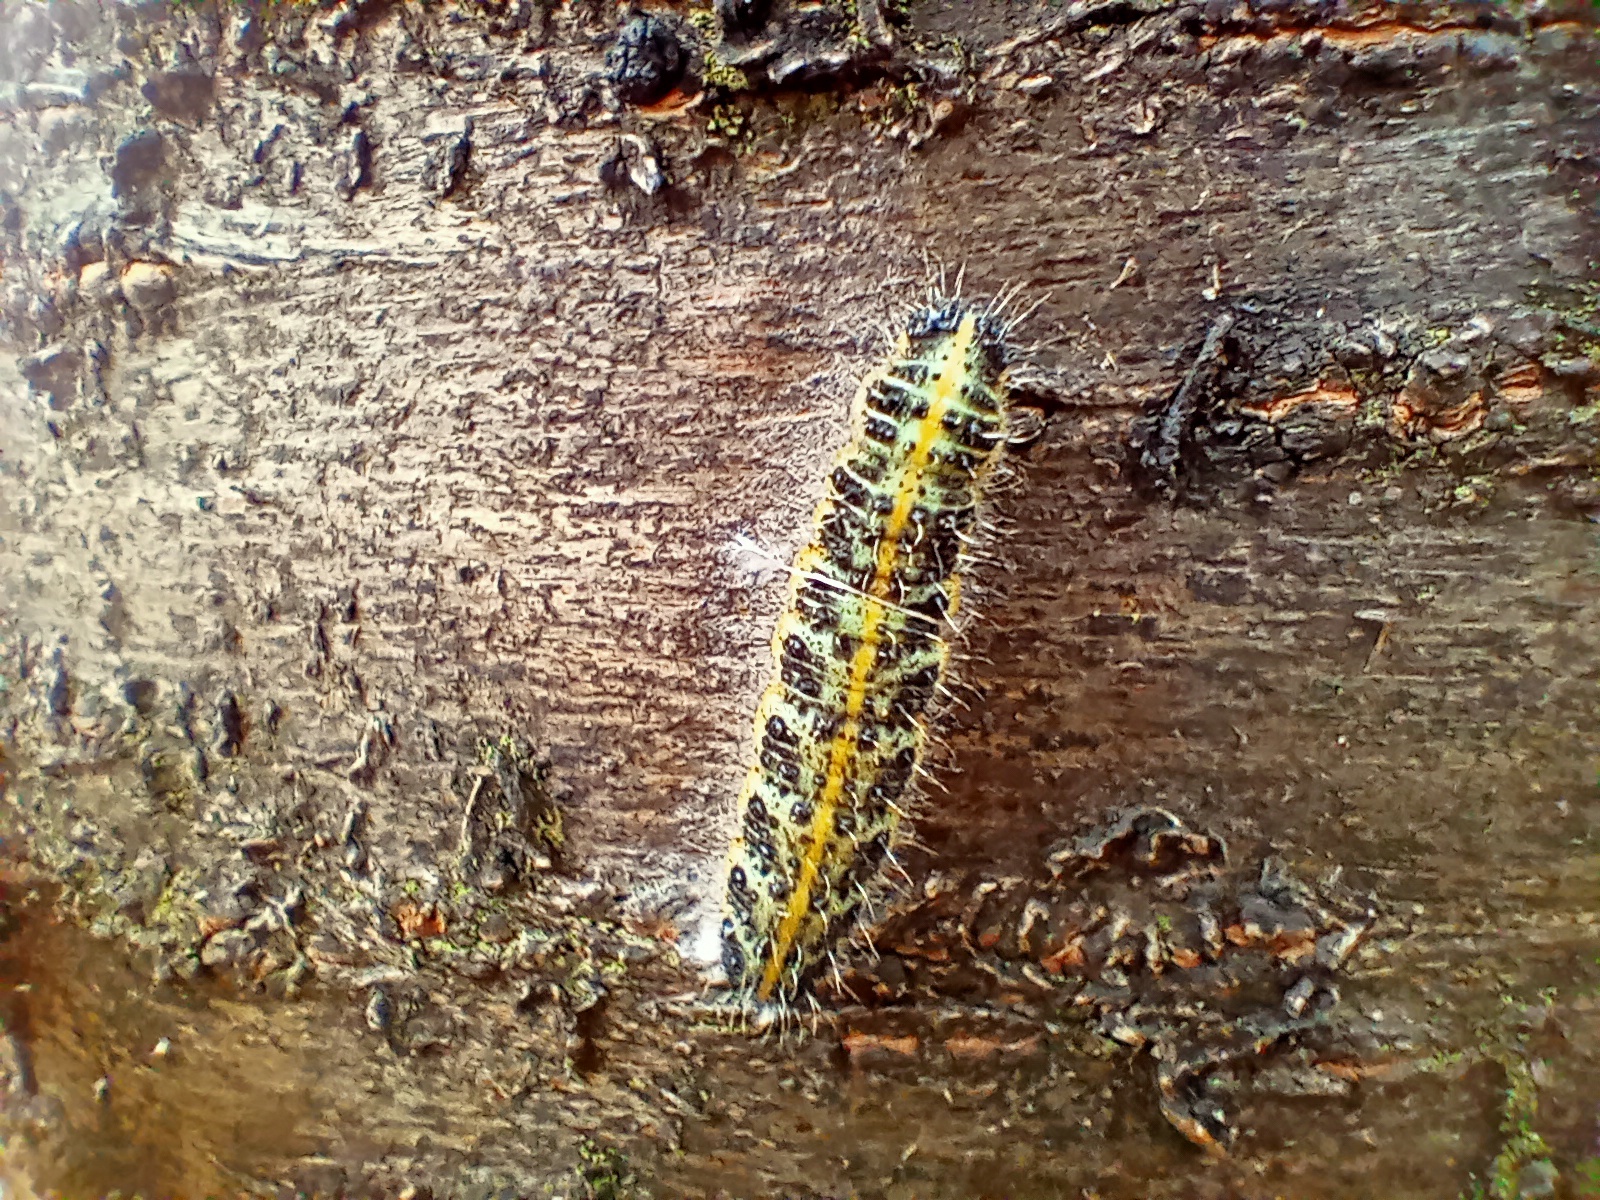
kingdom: Animalia
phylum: Arthropoda
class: Insecta
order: Lepidoptera
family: Pieridae
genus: Pieris
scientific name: Pieris brassicae
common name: Large white
